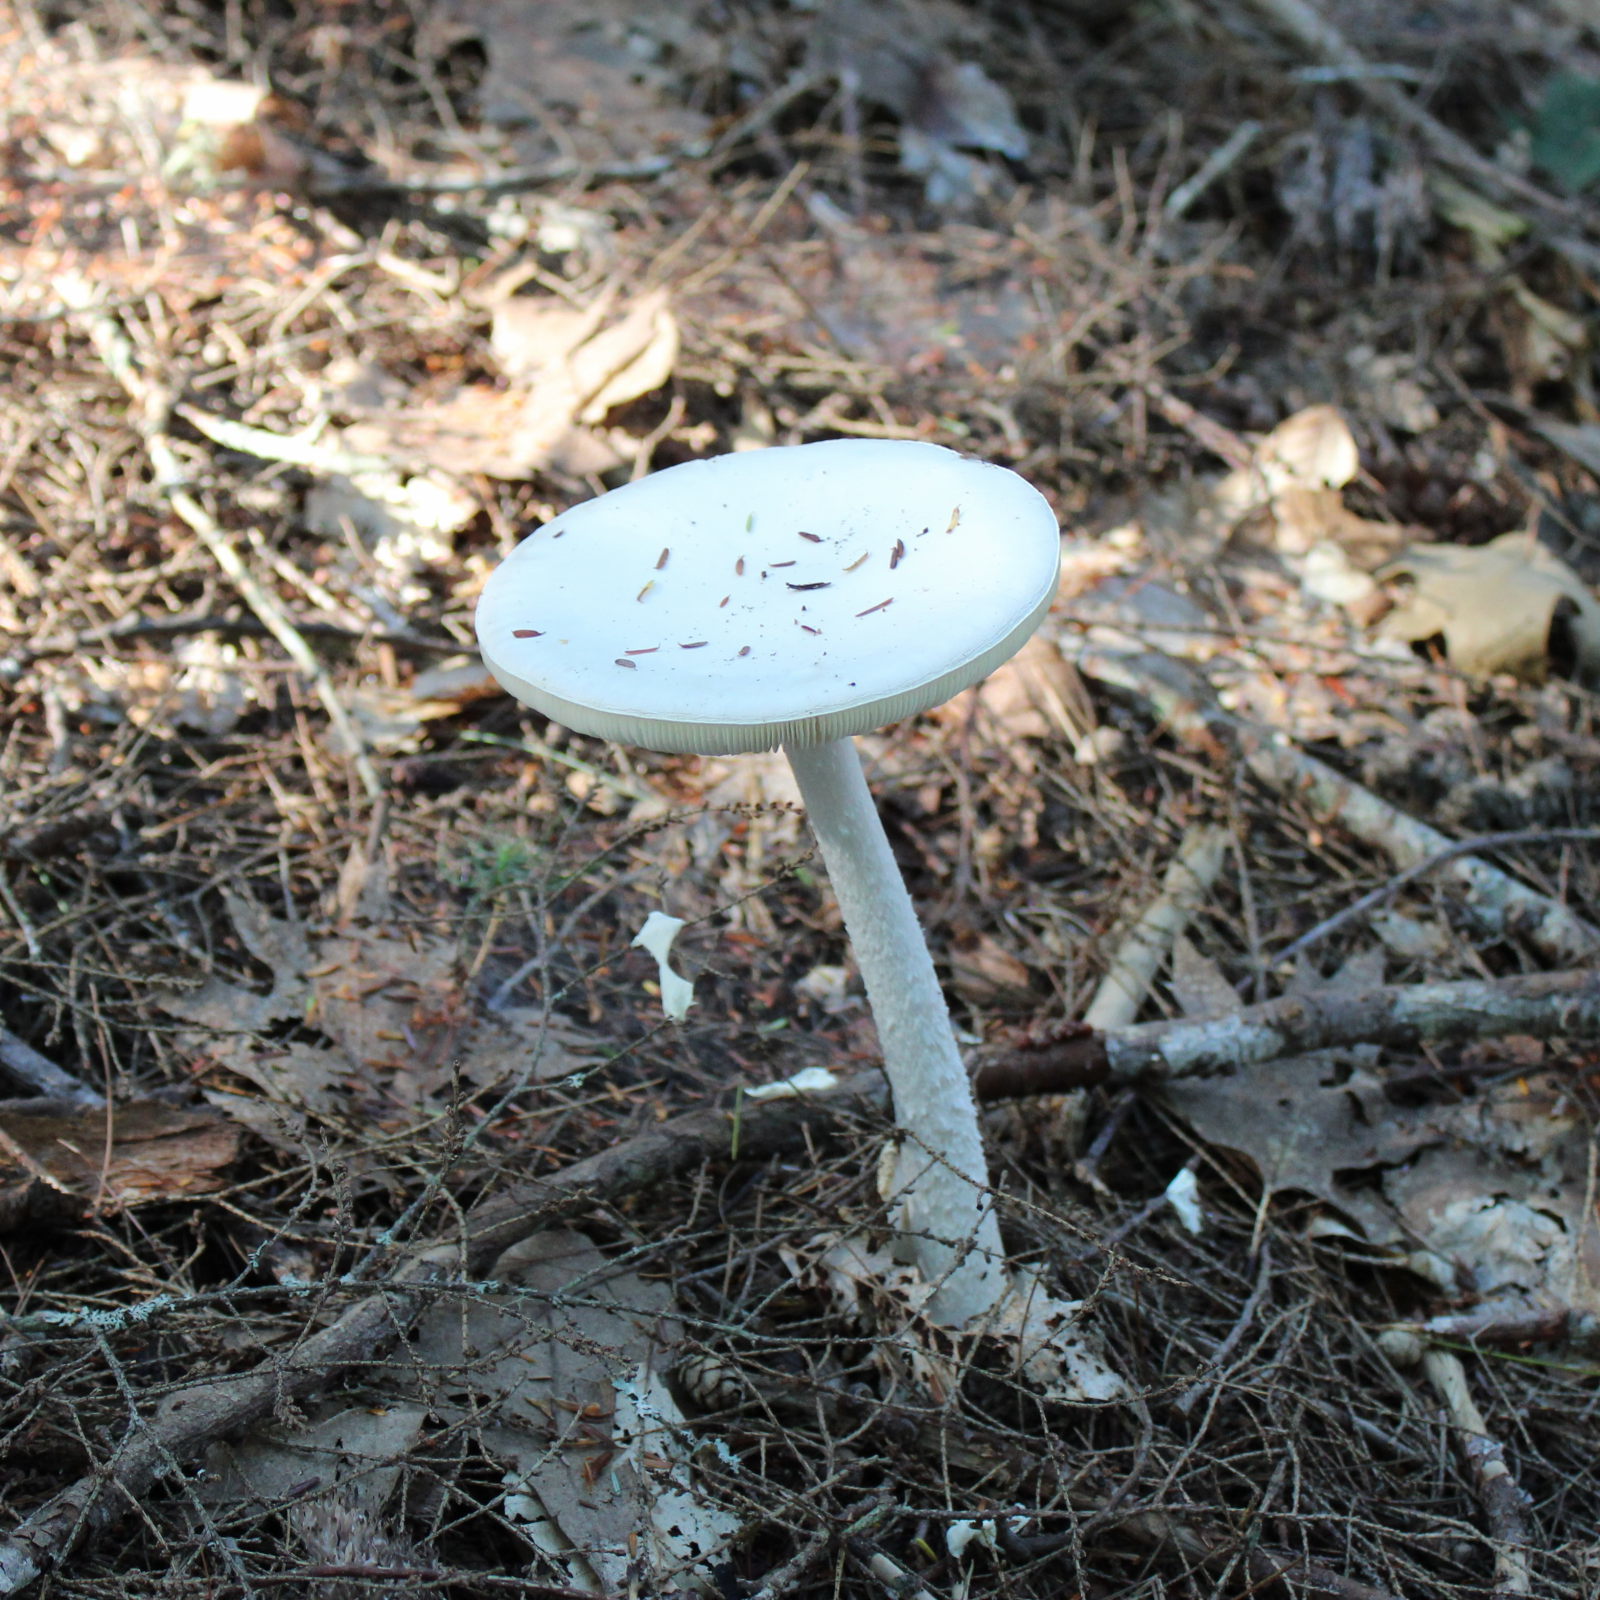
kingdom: Fungi
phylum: Basidiomycota
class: Agaricomycetes
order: Agaricales
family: Amanitaceae
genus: Amanita
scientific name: Amanita bisporigera
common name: Eastern north american destroying angel
